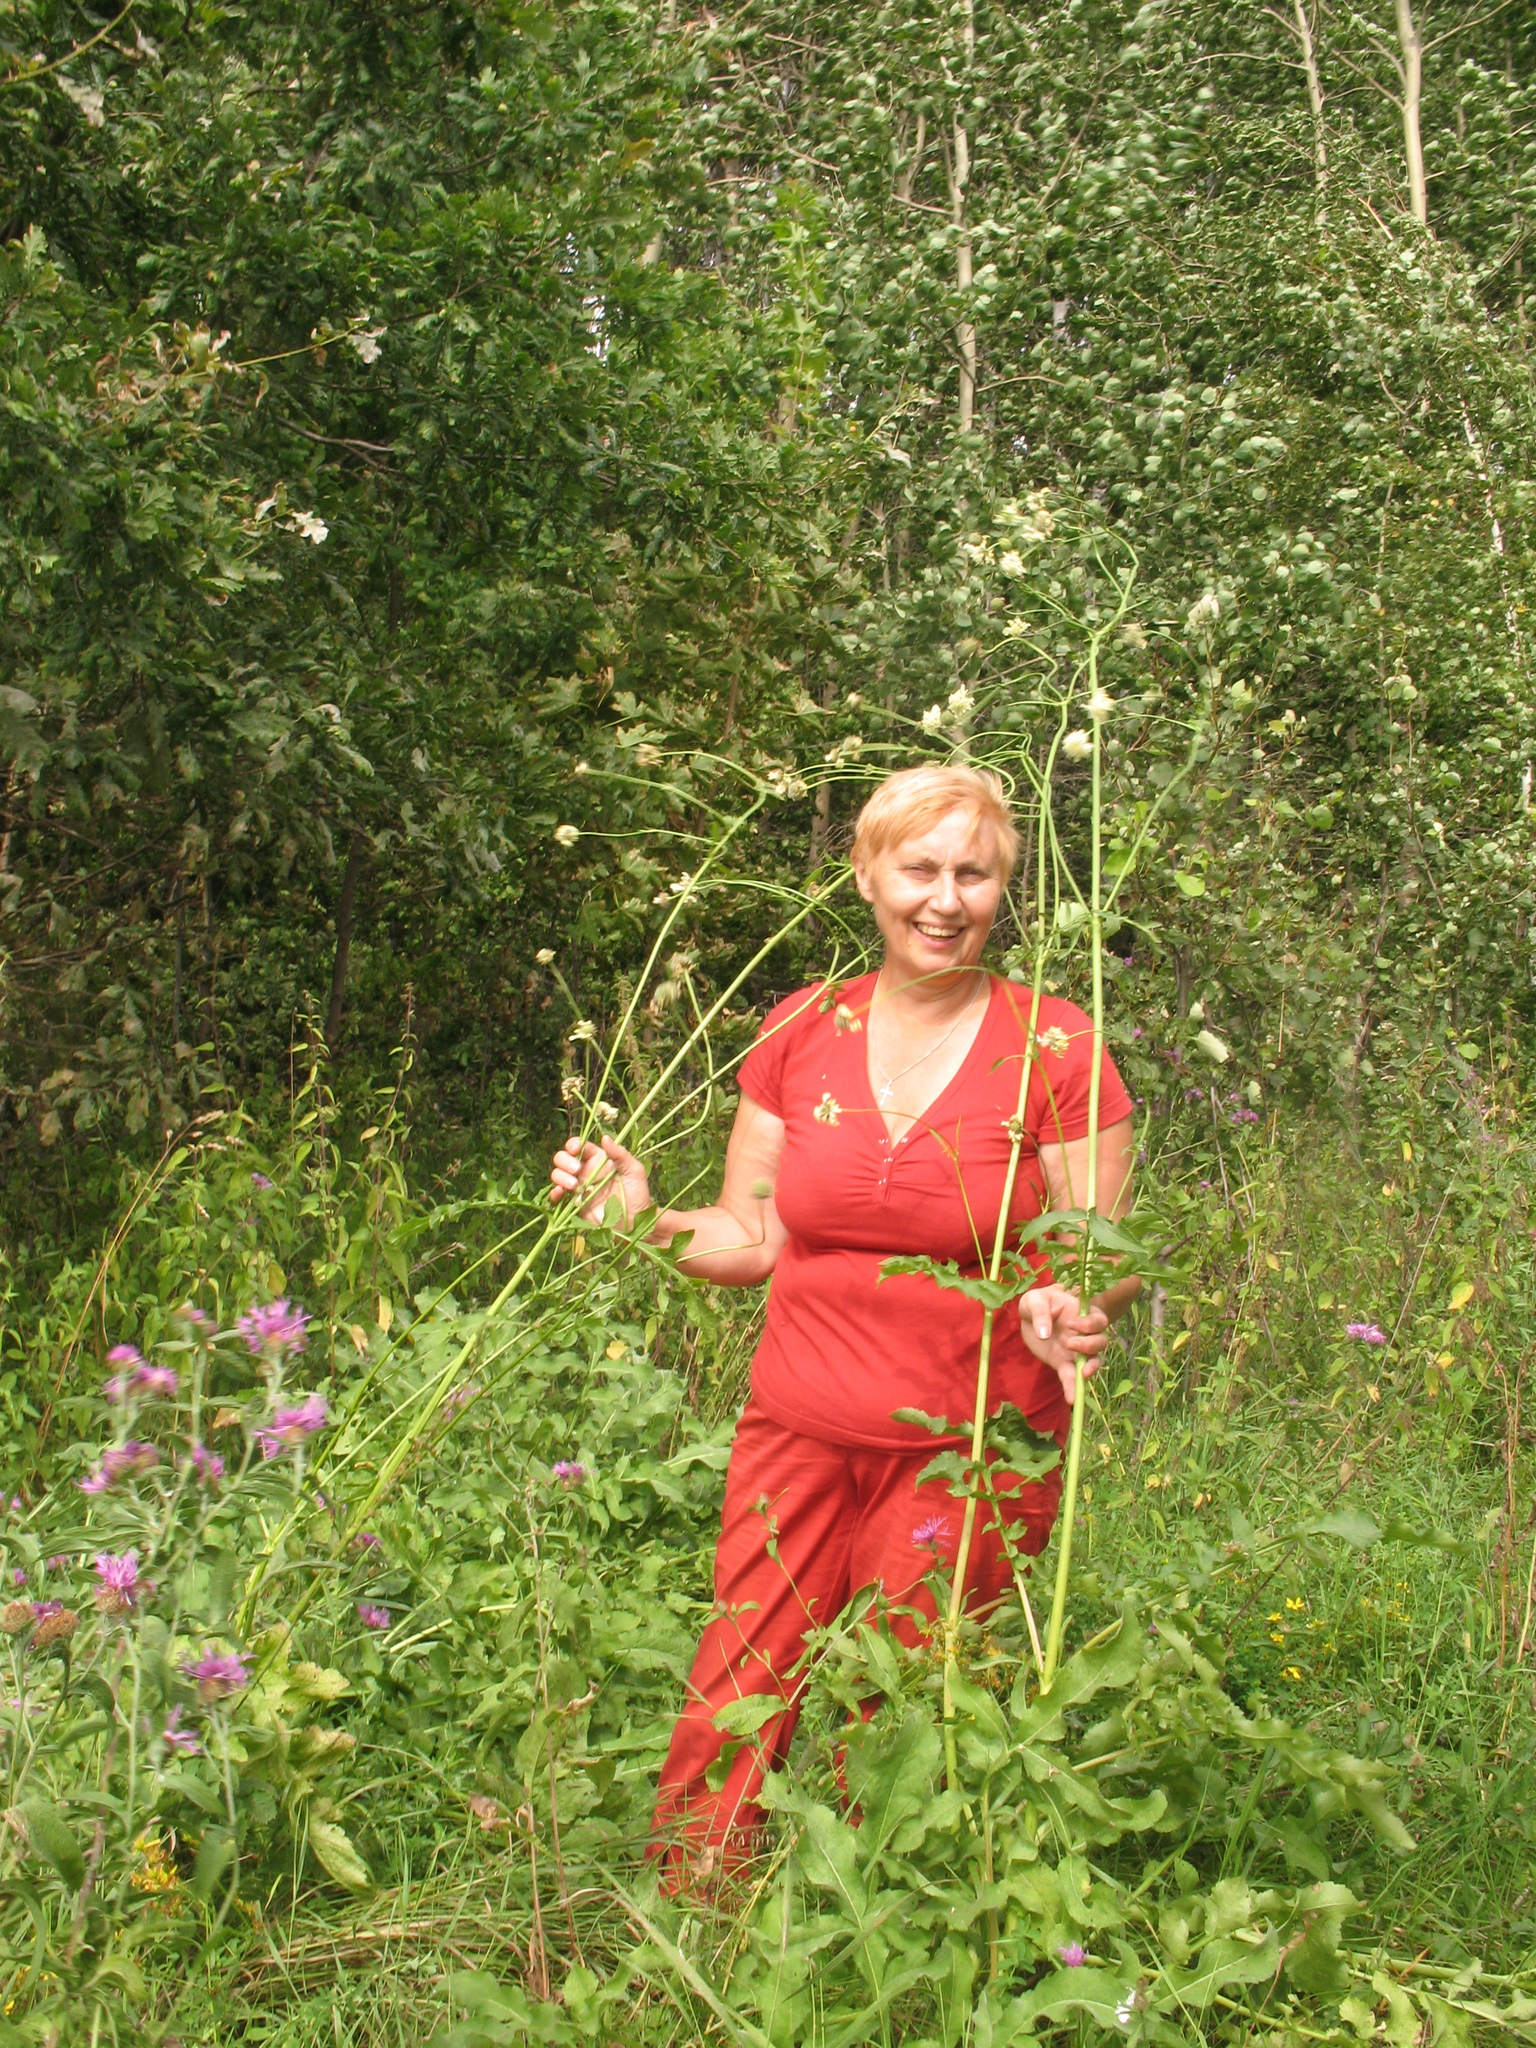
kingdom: Plantae
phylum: Tracheophyta
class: Magnoliopsida
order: Dipsacales
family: Caprifoliaceae
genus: Cephalaria
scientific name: Cephalaria litvinovii
